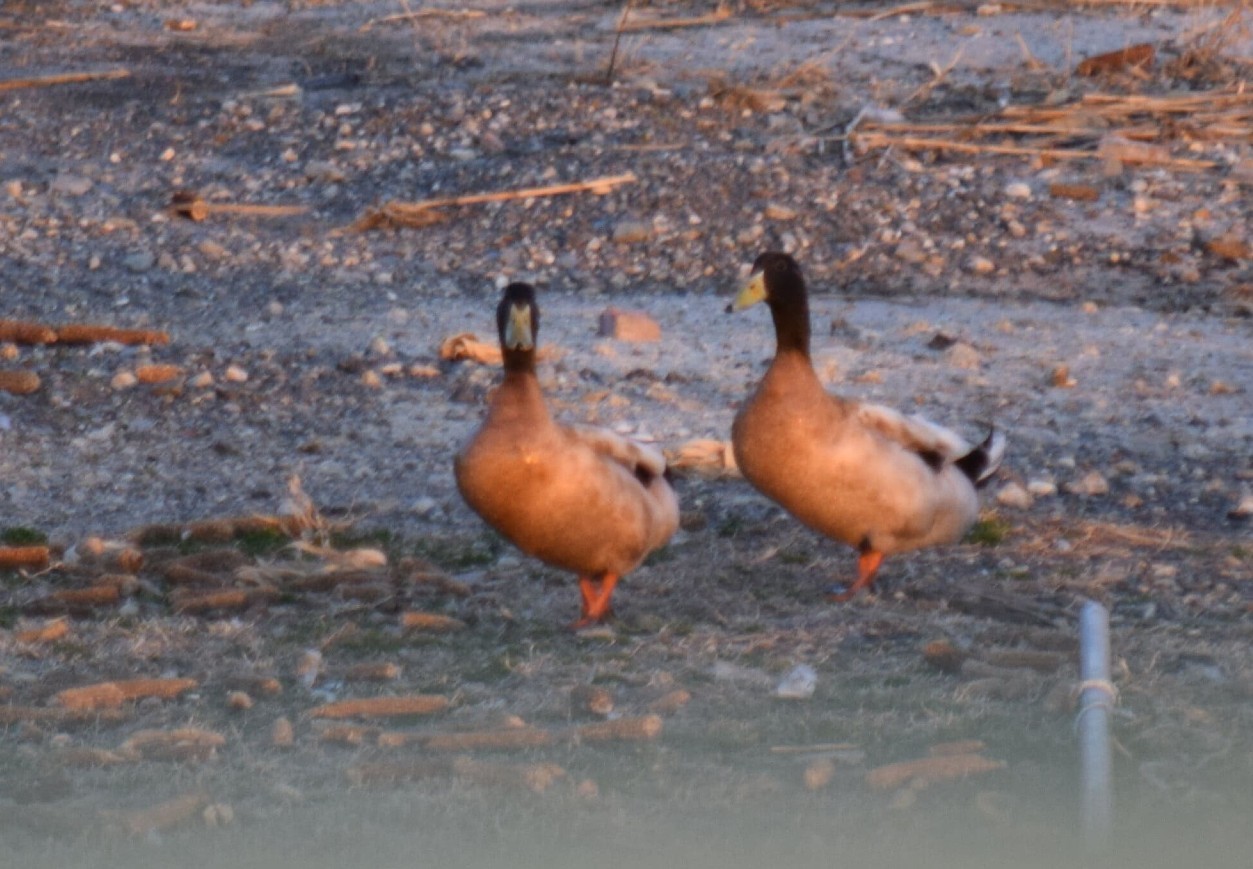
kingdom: Animalia
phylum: Chordata
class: Aves
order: Anseriformes
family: Anatidae
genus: Anas
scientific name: Anas platyrhynchos
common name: Mallard
